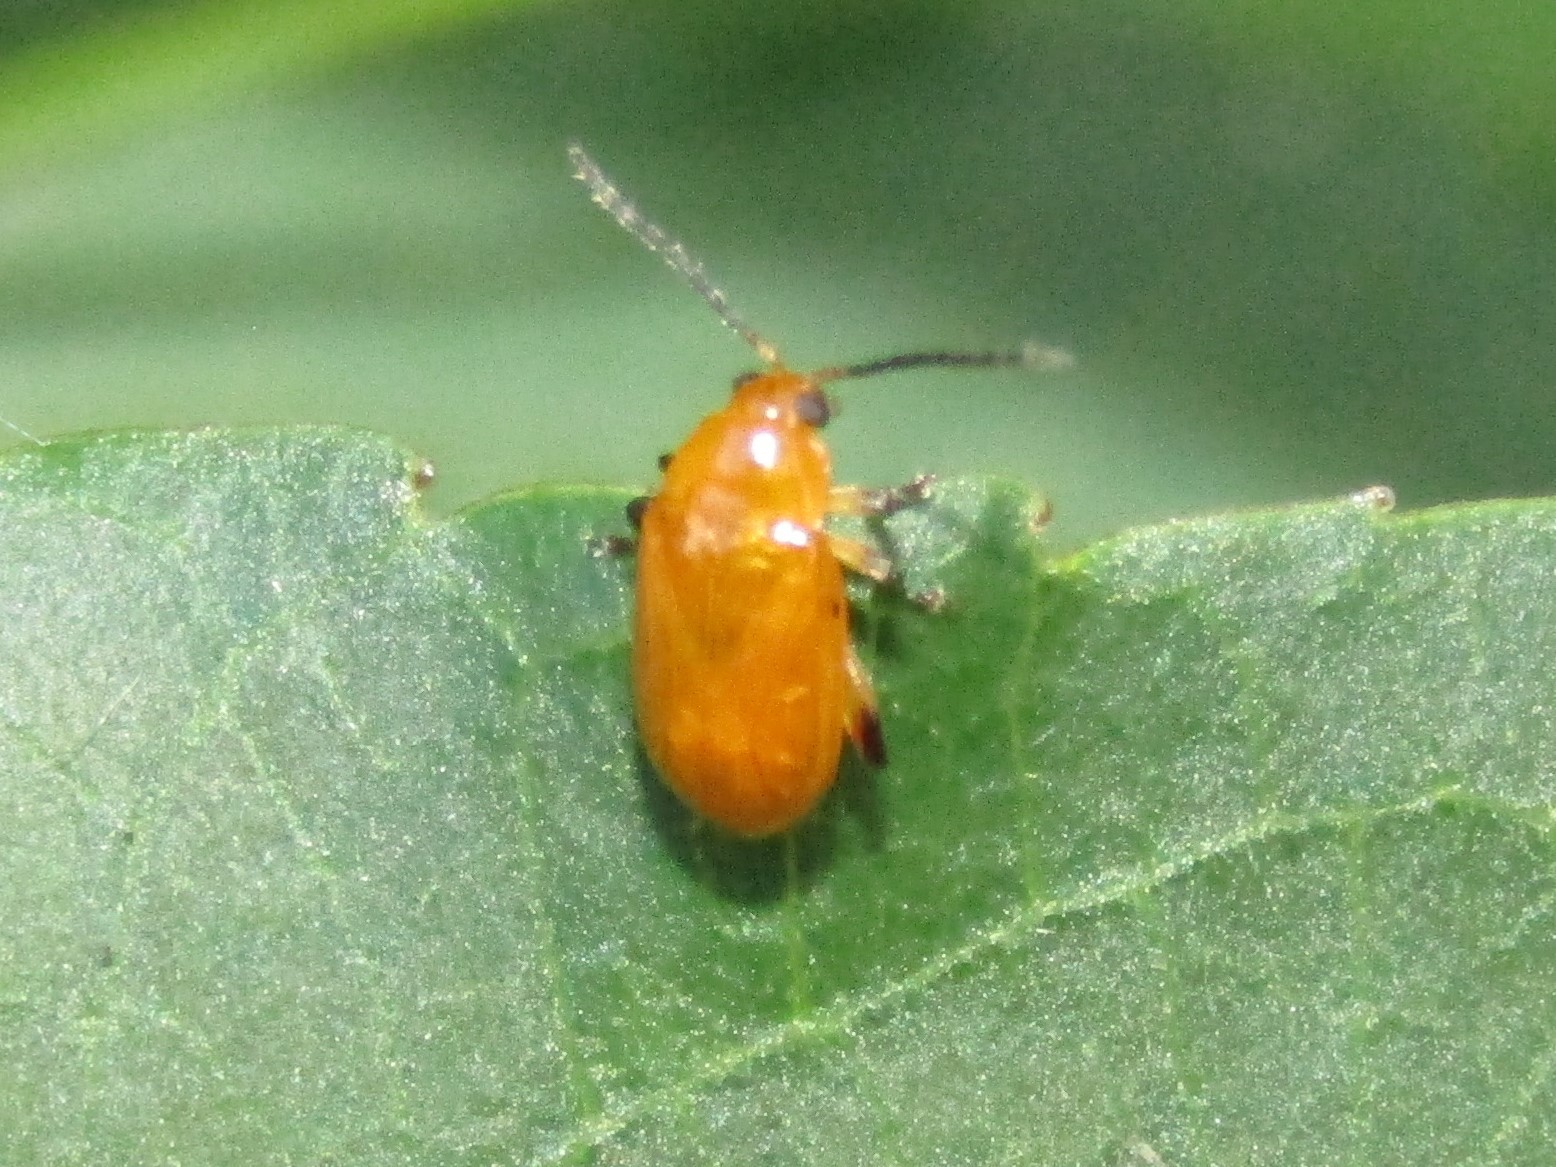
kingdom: Animalia
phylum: Arthropoda
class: Insecta
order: Coleoptera
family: Chrysomelidae
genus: Parchicola
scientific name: Parchicola tibialis
